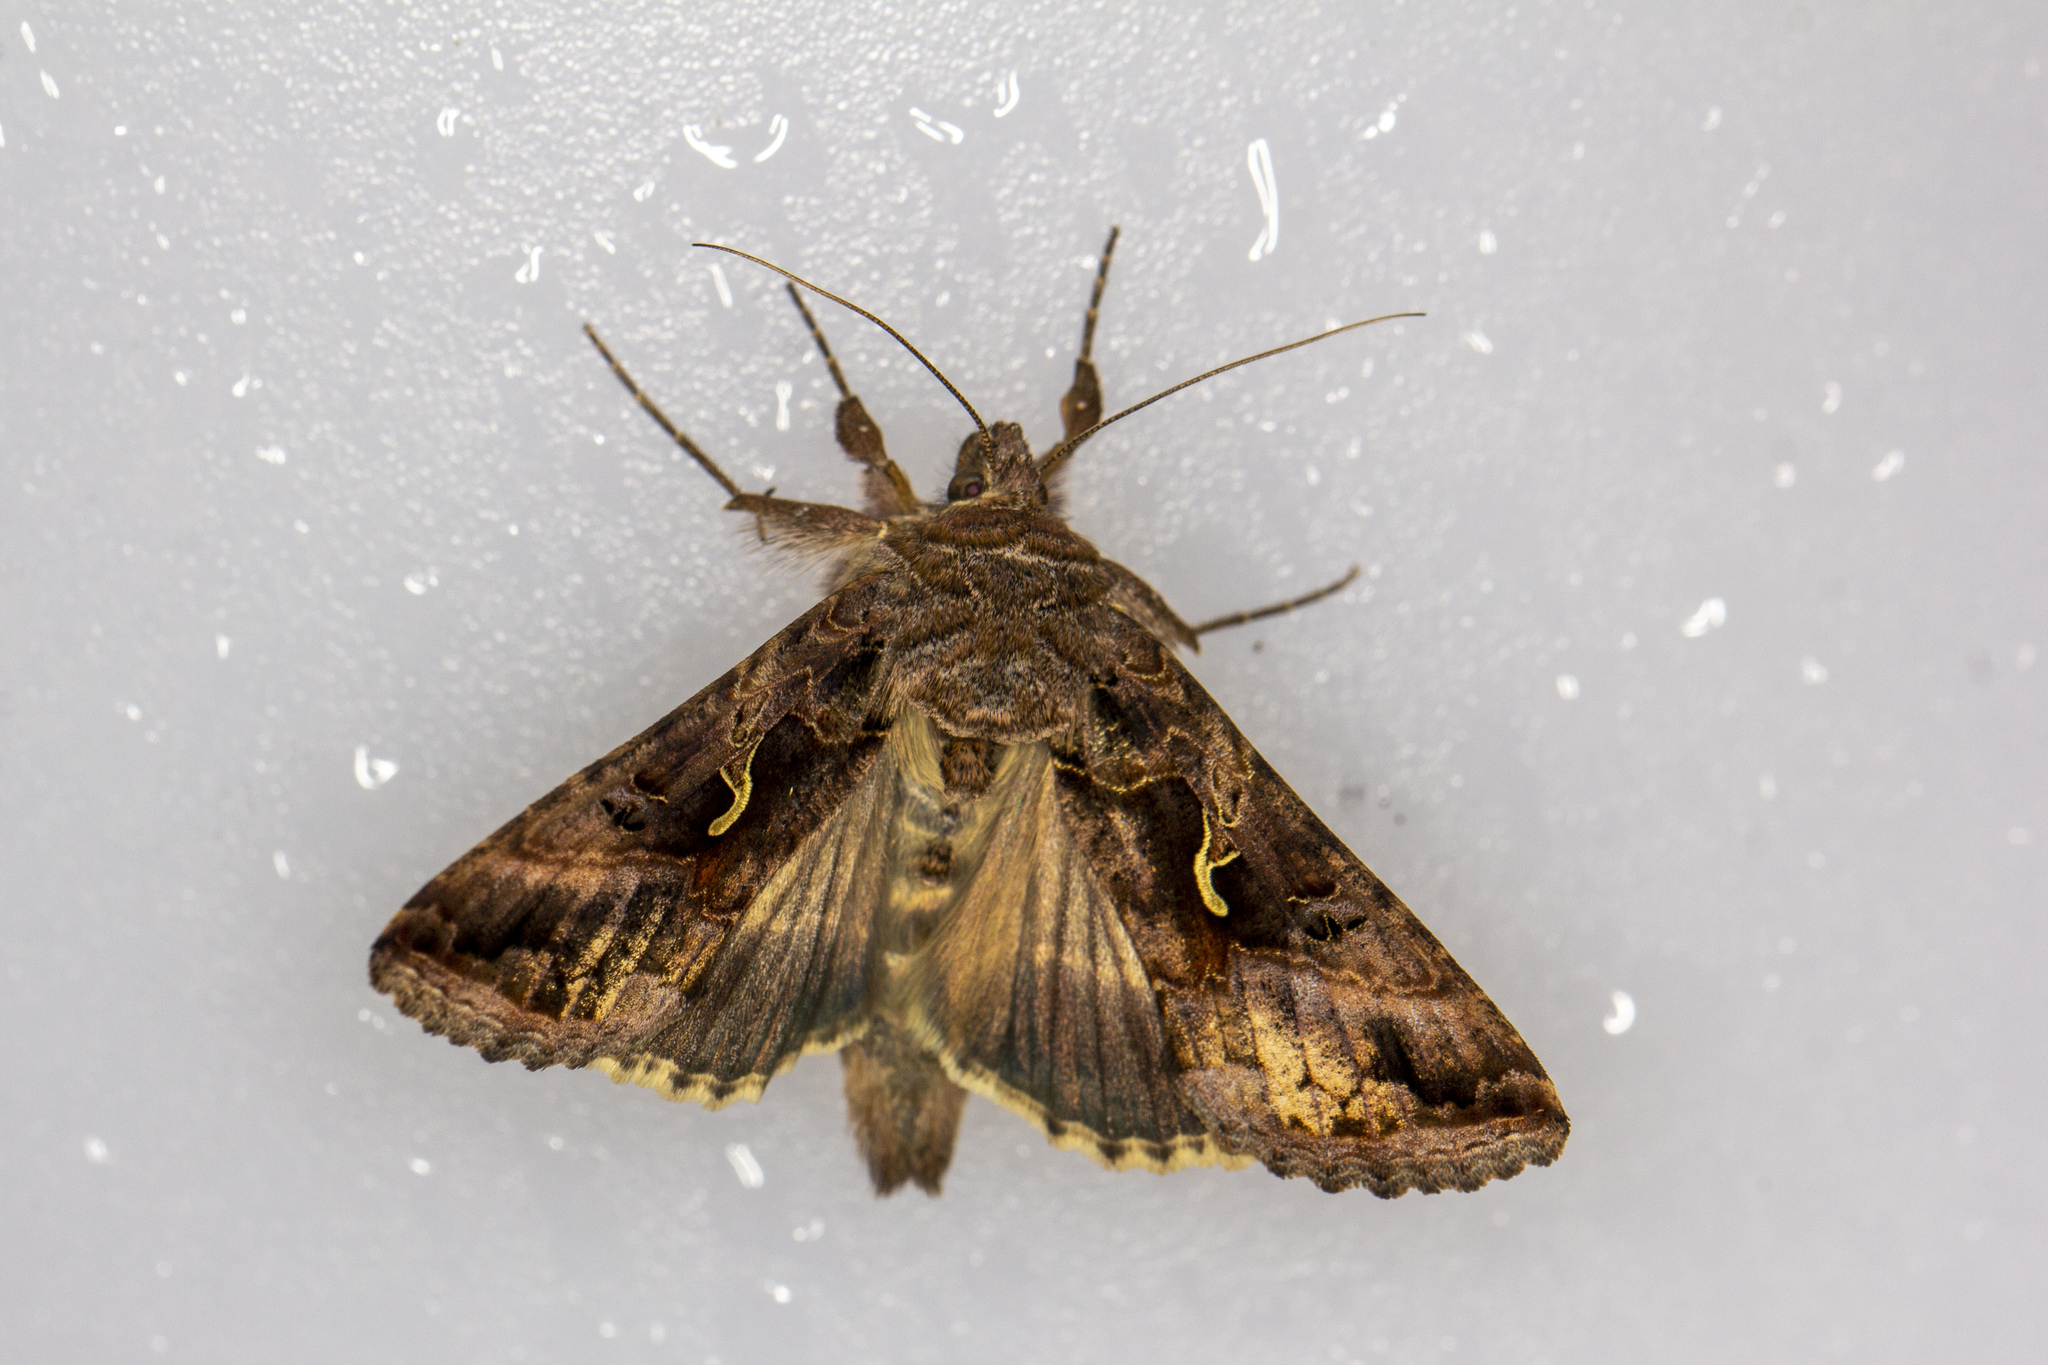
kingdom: Animalia
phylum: Arthropoda
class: Insecta
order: Lepidoptera
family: Noctuidae
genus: Autographa
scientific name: Autographa gamma
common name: Silver y
